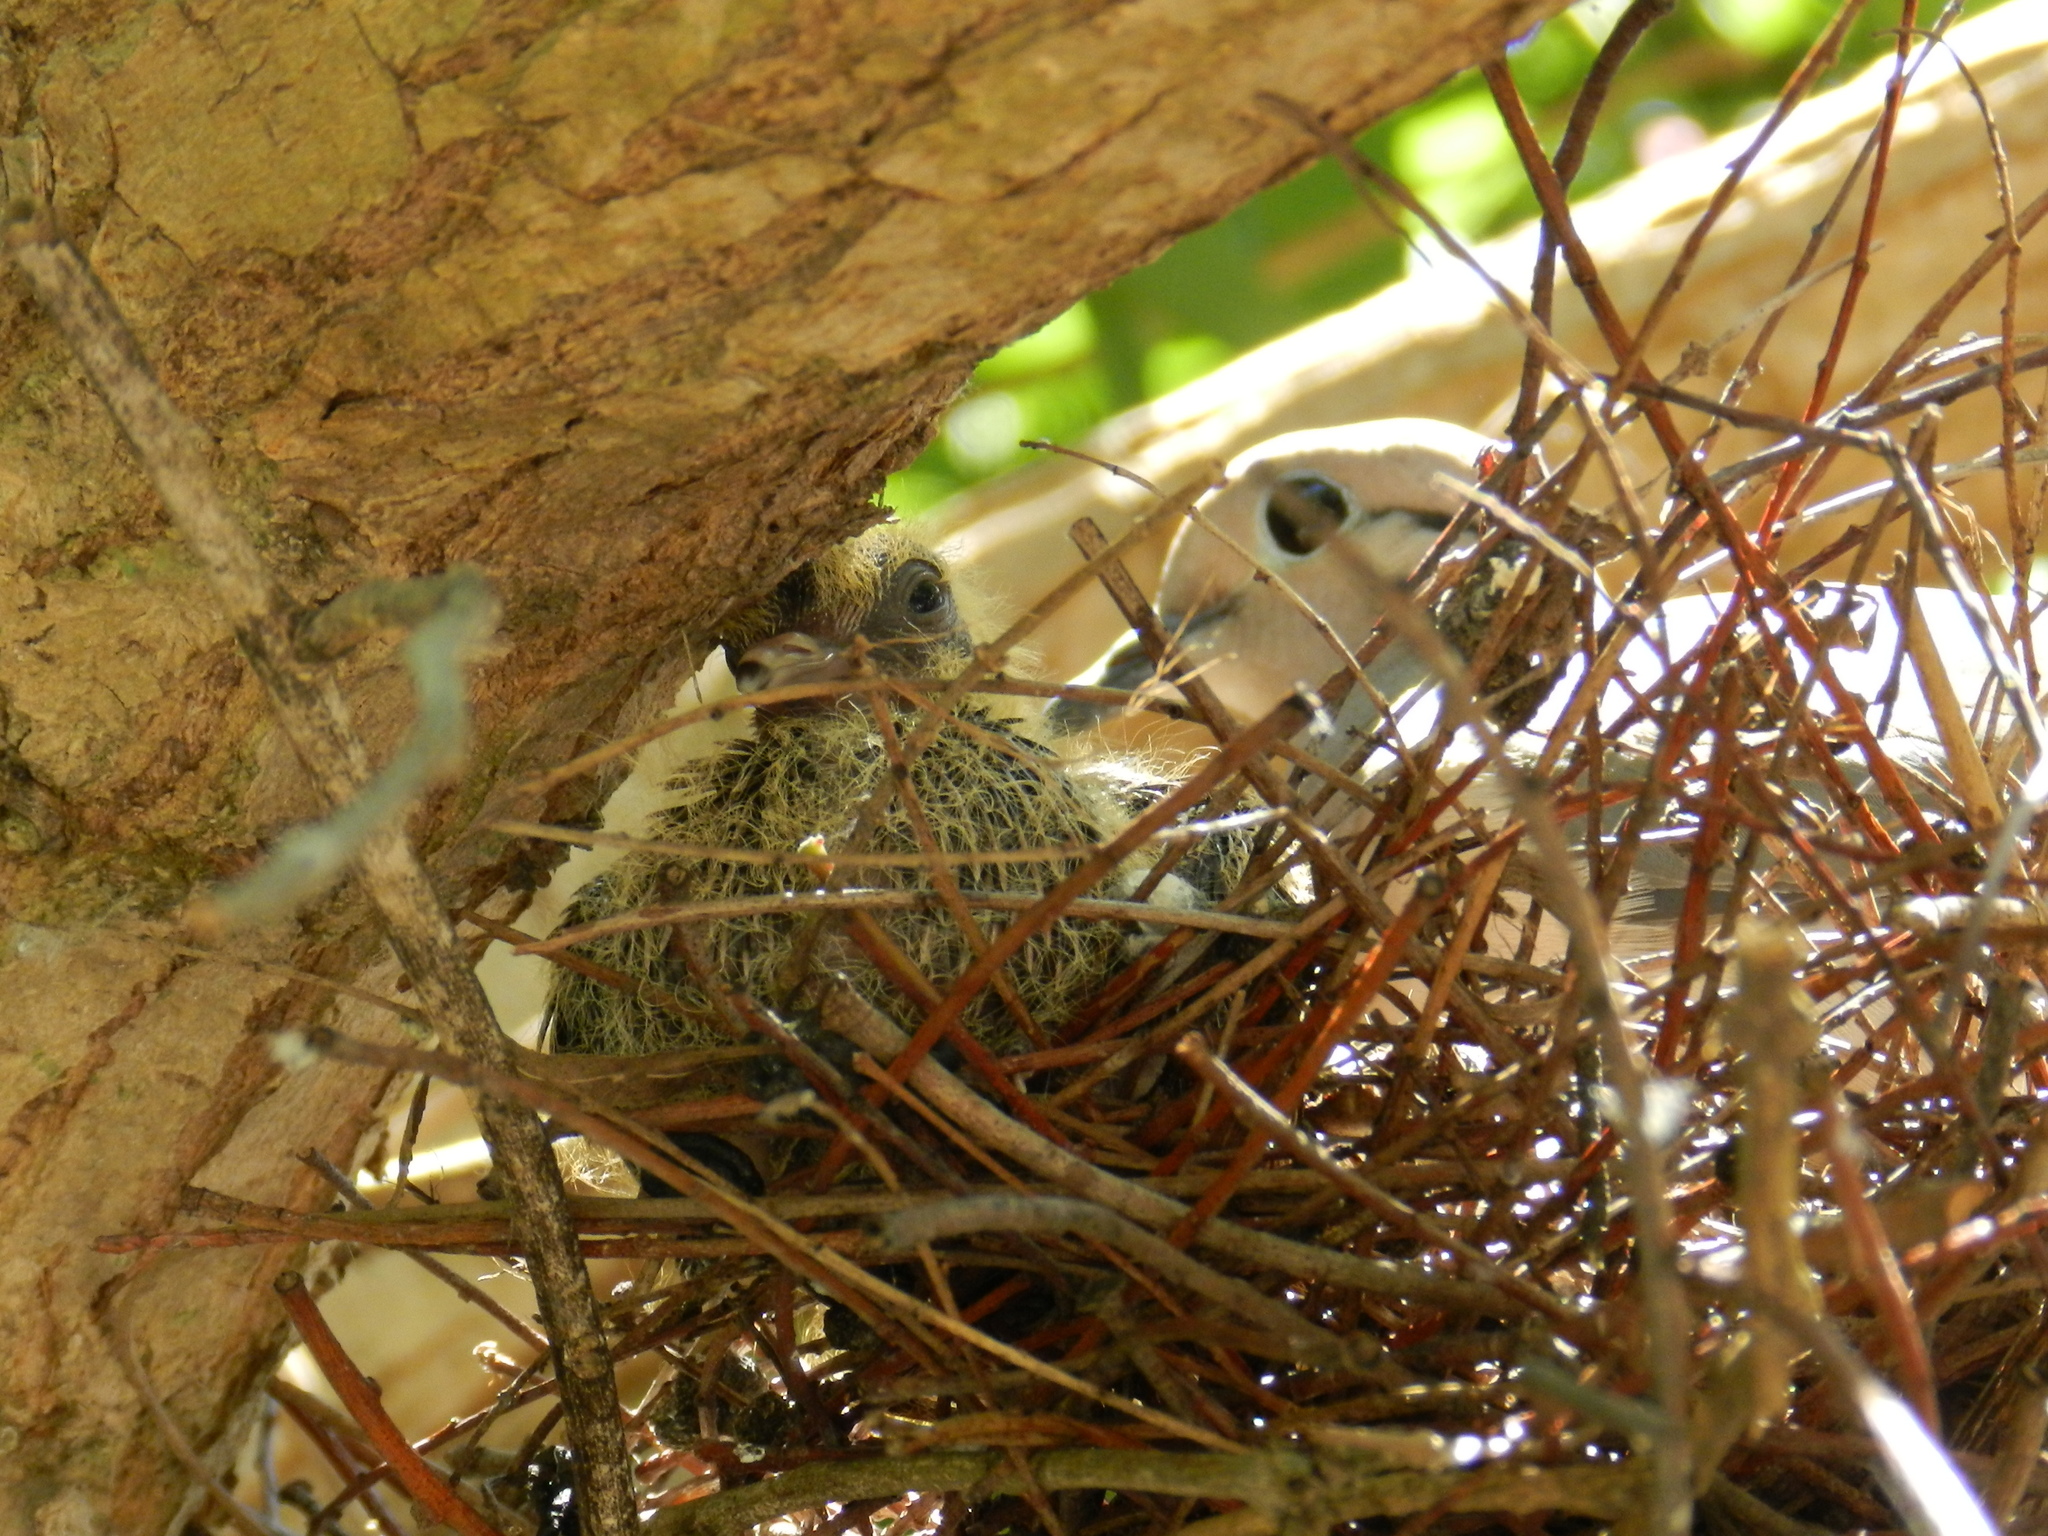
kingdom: Animalia
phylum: Chordata
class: Aves
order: Columbiformes
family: Columbidae
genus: Zenaida
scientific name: Zenaida auriculata
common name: Eared dove
